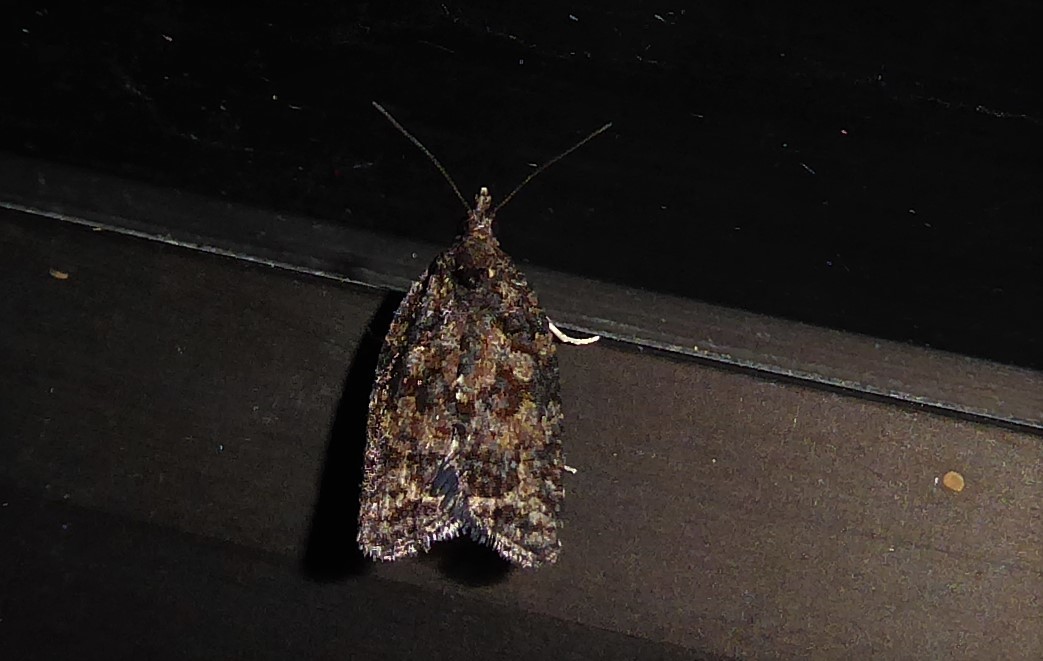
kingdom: Animalia
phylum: Arthropoda
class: Insecta
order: Lepidoptera
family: Tortricidae
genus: Capua
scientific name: Capua intractana
